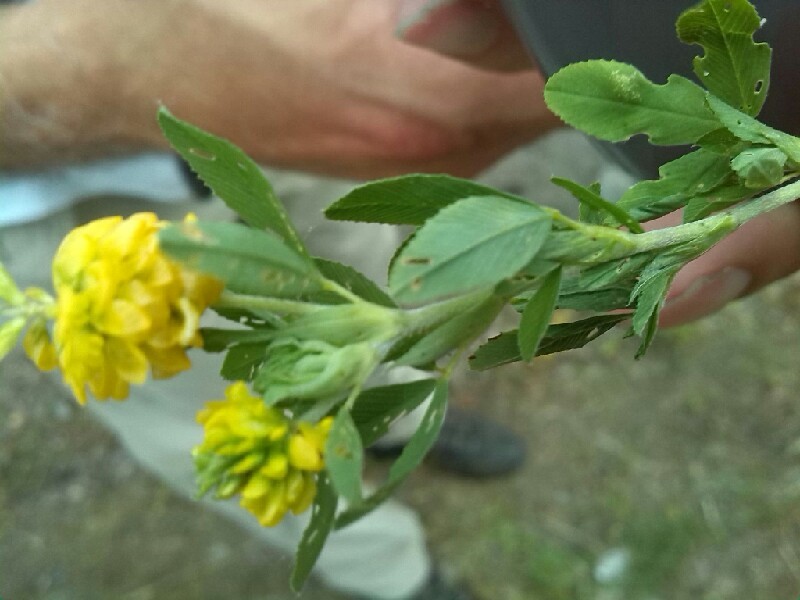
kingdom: Plantae
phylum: Tracheophyta
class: Magnoliopsida
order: Fabales
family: Fabaceae
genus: Trifolium
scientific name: Trifolium aureum
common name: Golden clover
